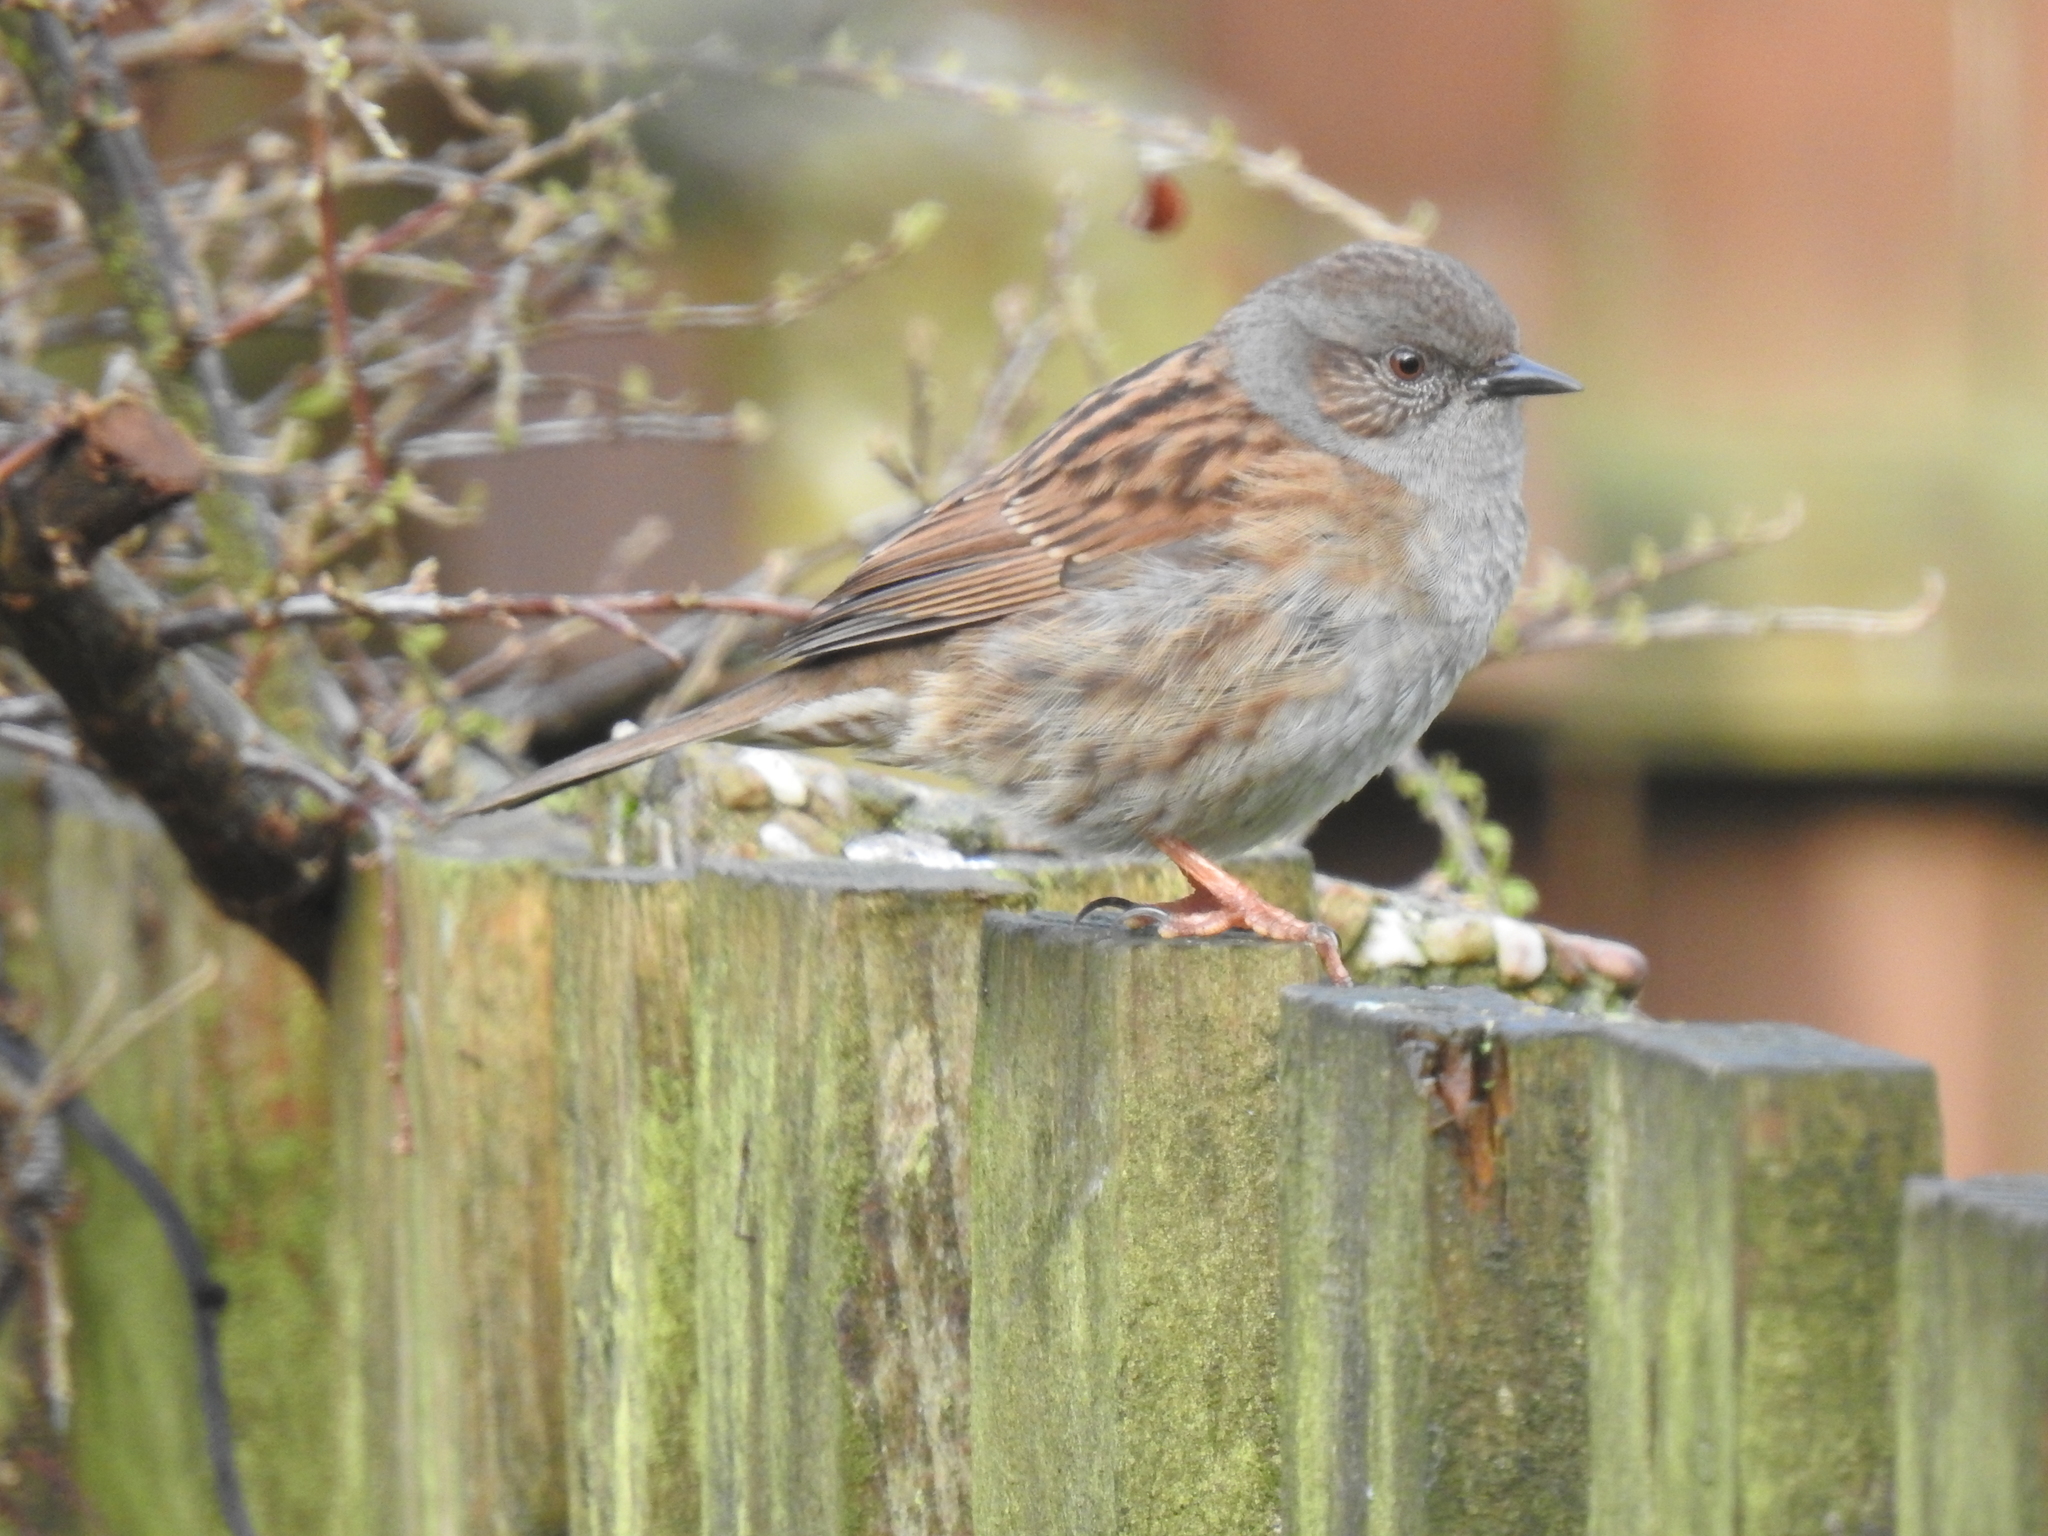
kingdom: Animalia
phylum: Chordata
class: Aves
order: Passeriformes
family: Prunellidae
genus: Prunella
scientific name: Prunella modularis
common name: Dunnock
